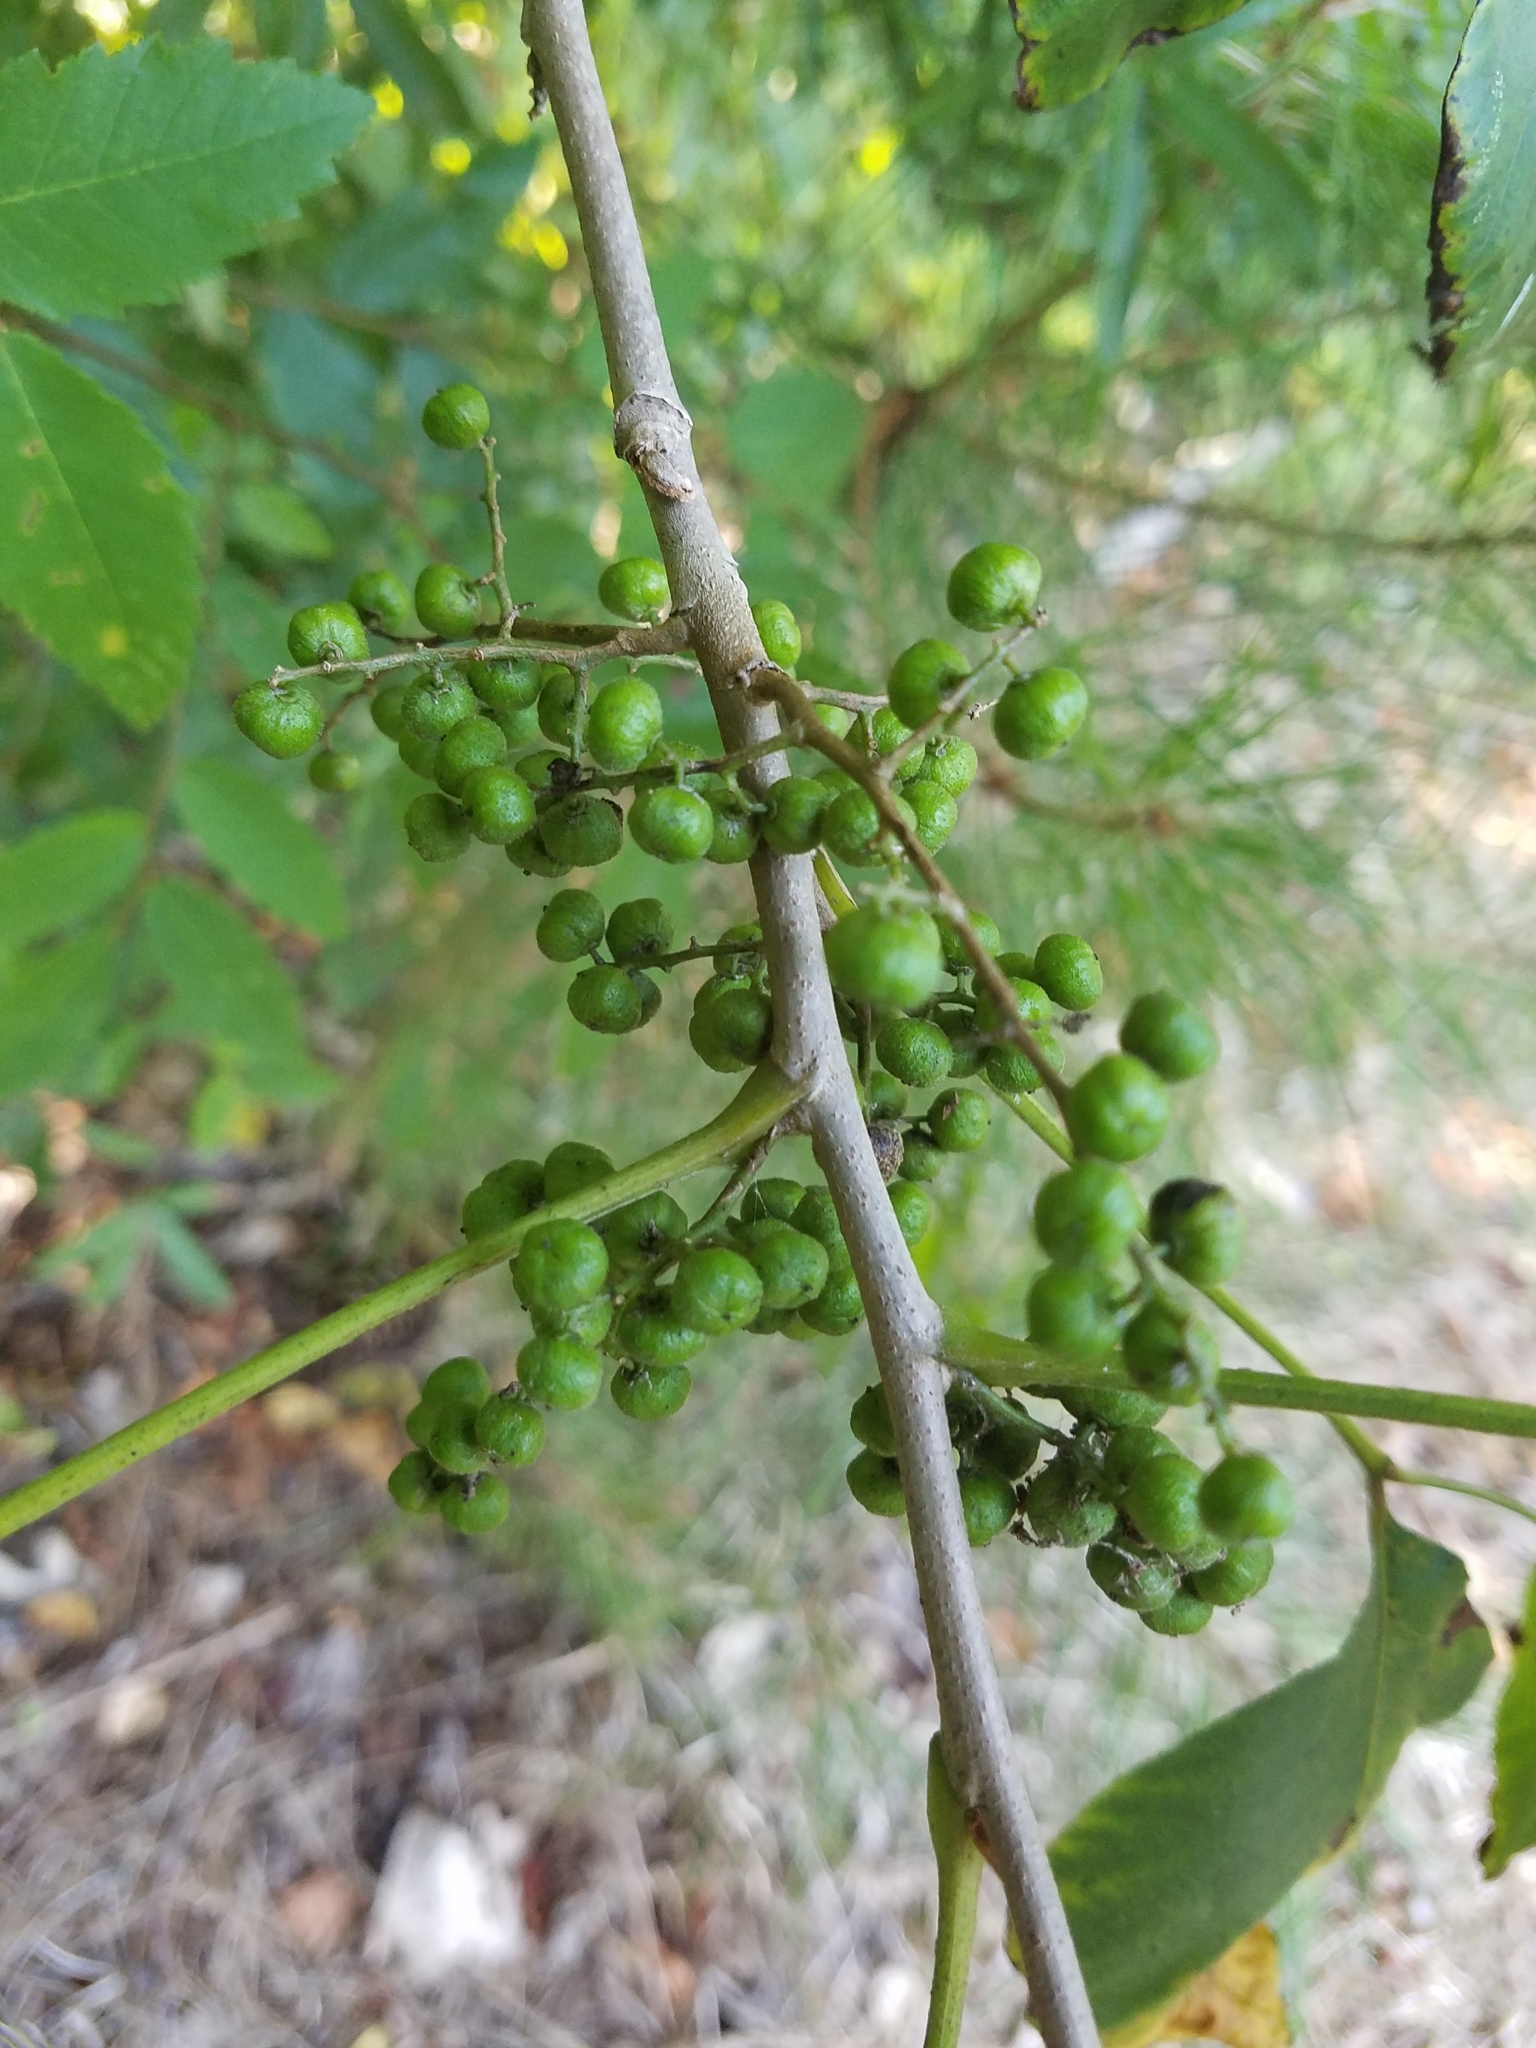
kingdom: Plantae
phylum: Tracheophyta
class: Magnoliopsida
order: Sapindales
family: Anacardiaceae
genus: Toxicodendron
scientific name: Toxicodendron radicans
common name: Poison ivy
